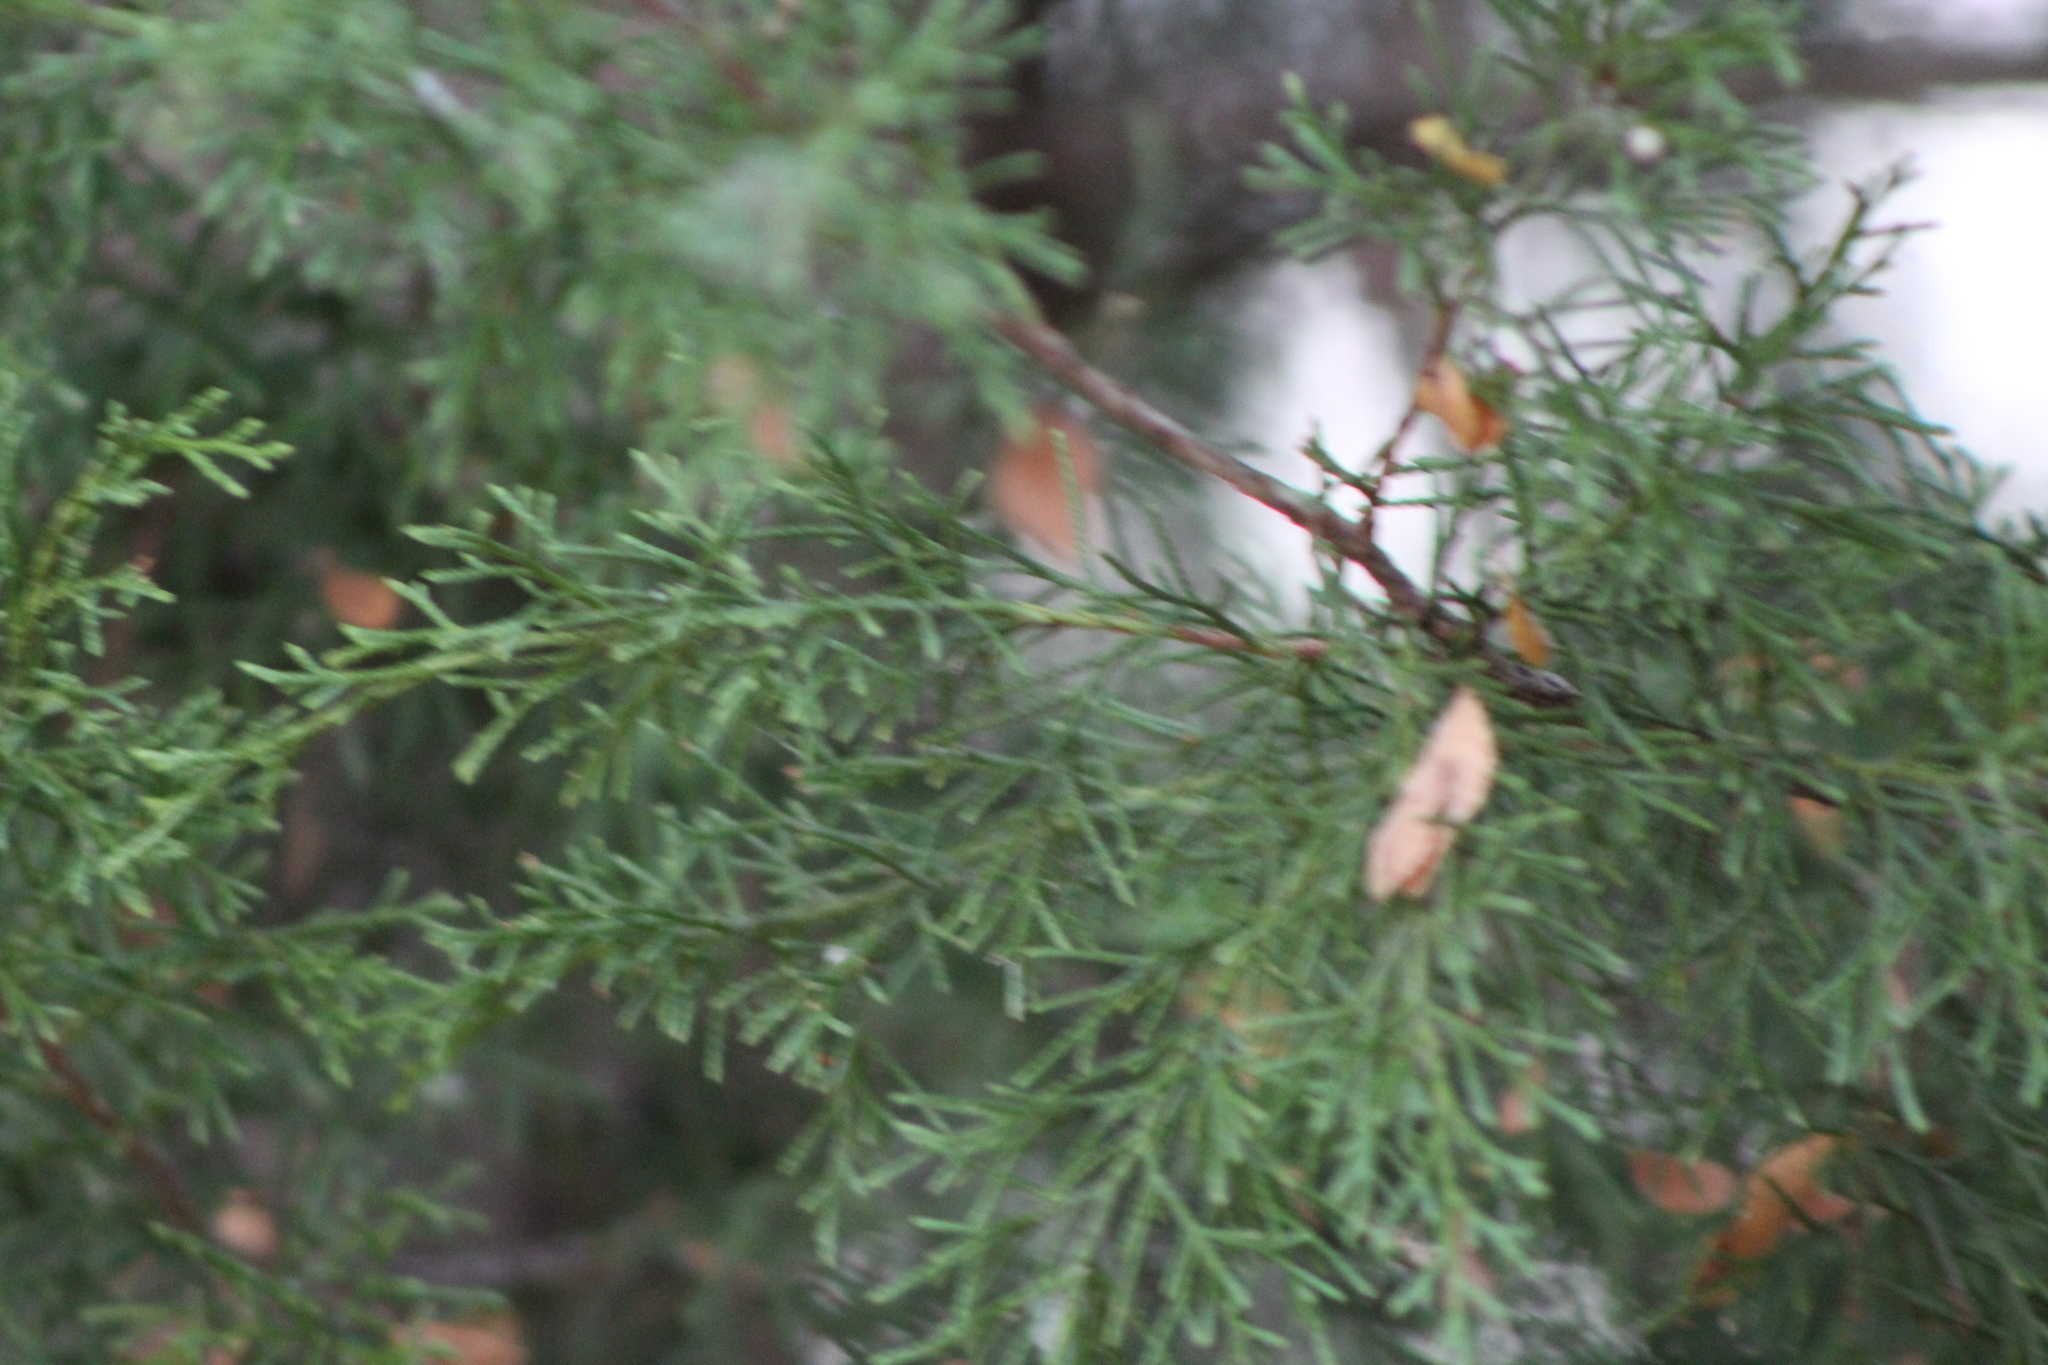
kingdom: Plantae
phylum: Tracheophyta
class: Pinopsida
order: Pinales
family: Cupressaceae
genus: Juniperus
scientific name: Juniperus virginiana
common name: Red juniper
